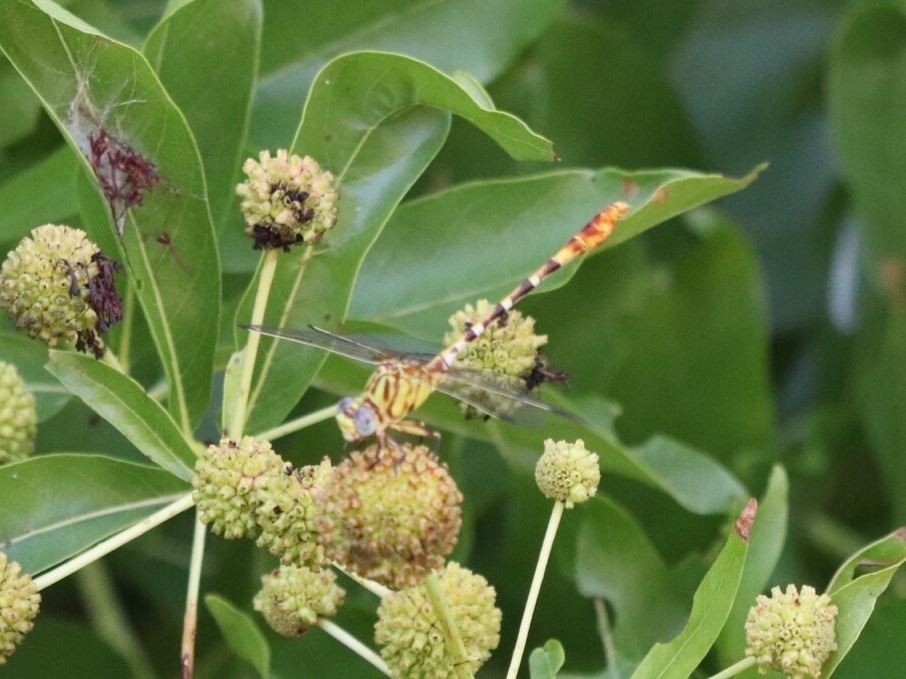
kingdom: Animalia
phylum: Arthropoda
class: Insecta
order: Odonata
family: Gomphidae
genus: Erpetogomphus
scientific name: Erpetogomphus designatus
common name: Eastern ringtail
